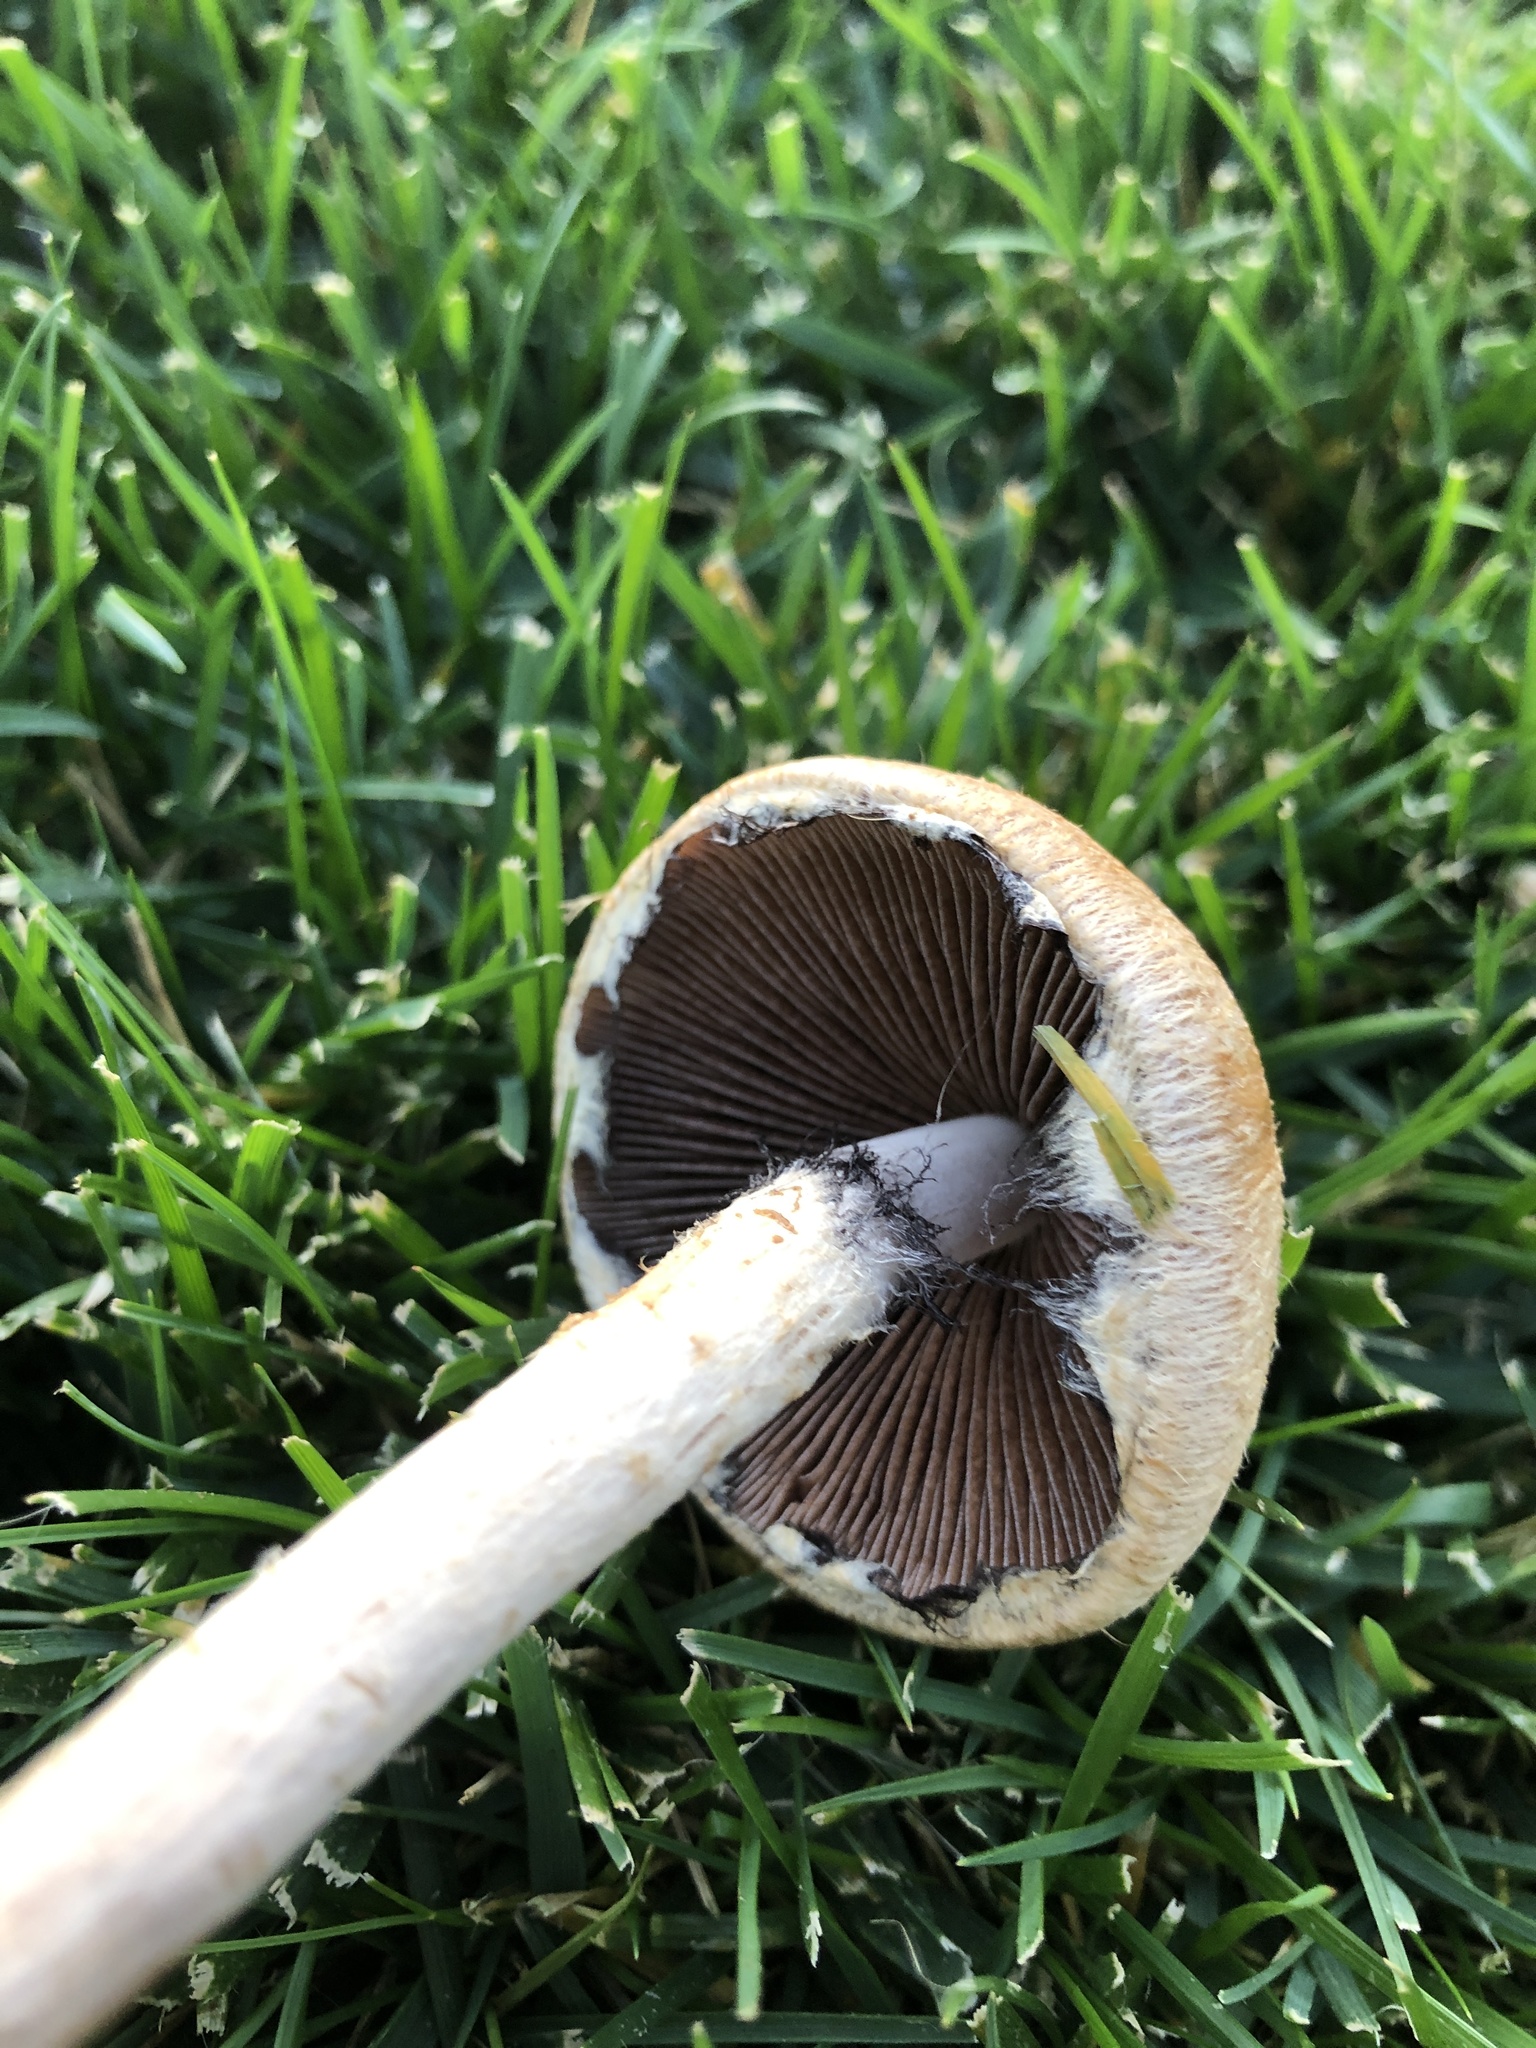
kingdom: Fungi
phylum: Basidiomycota
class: Agaricomycetes
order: Agaricales
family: Psathyrellaceae
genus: Lacrymaria
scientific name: Lacrymaria lacrymabunda
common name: Weeping widow
